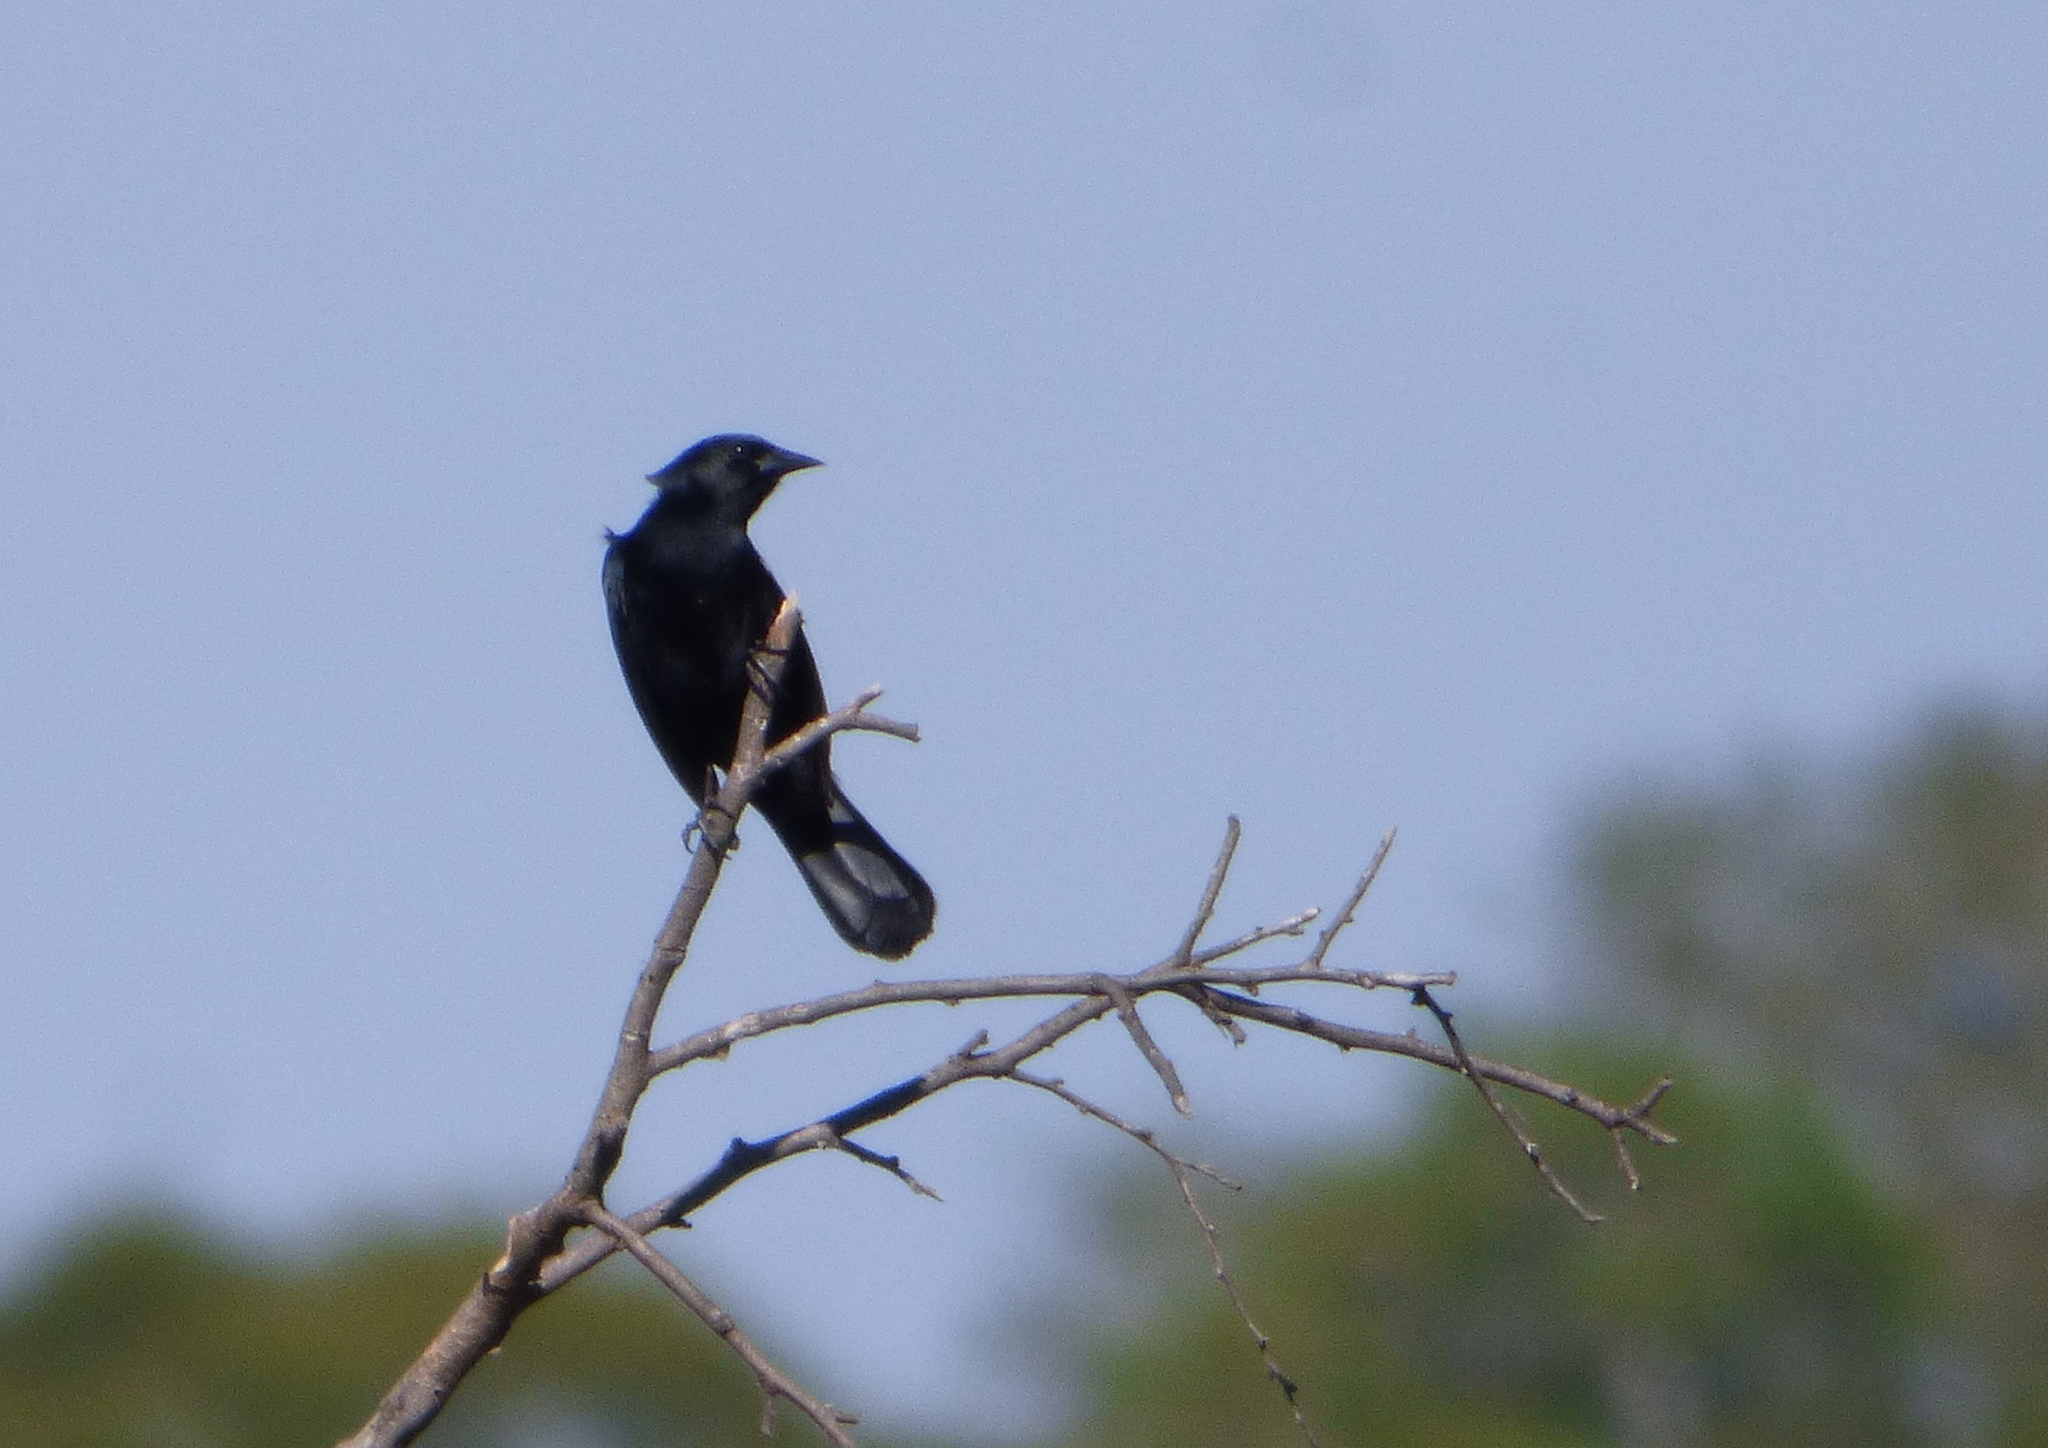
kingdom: Animalia
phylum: Chordata
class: Aves
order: Passeriformes
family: Icteridae
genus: Agelasticus
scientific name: Agelasticus cyanopus
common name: Unicolored blackbird
